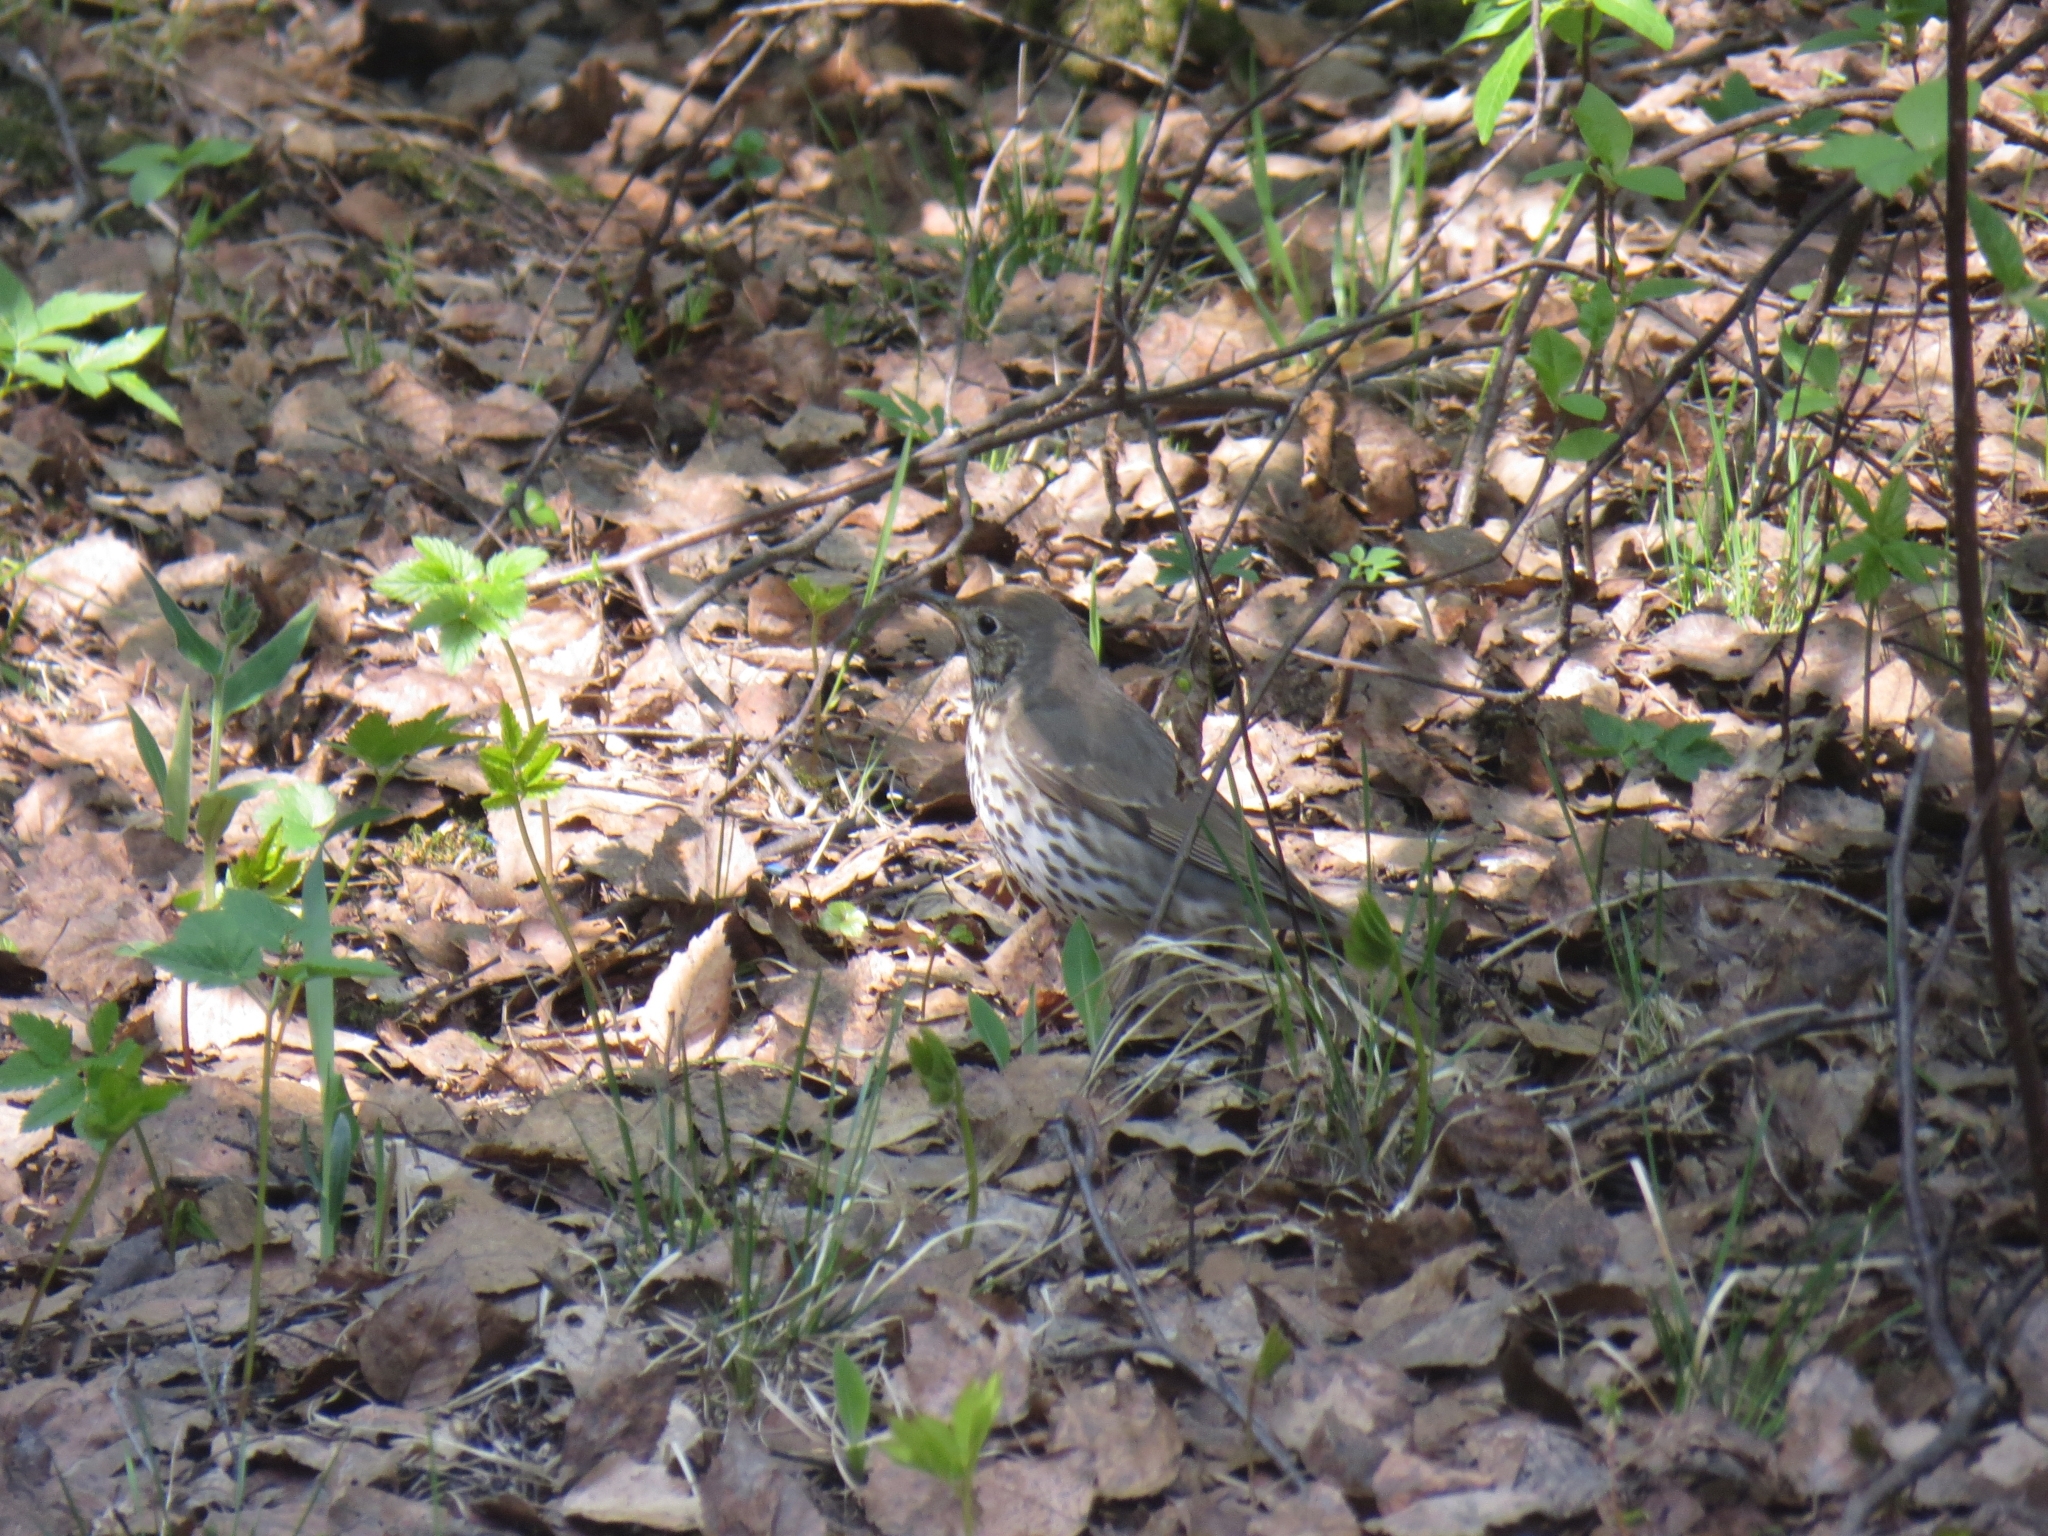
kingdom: Animalia
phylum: Chordata
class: Aves
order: Passeriformes
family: Turdidae
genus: Turdus
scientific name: Turdus philomelos
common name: Song thrush
